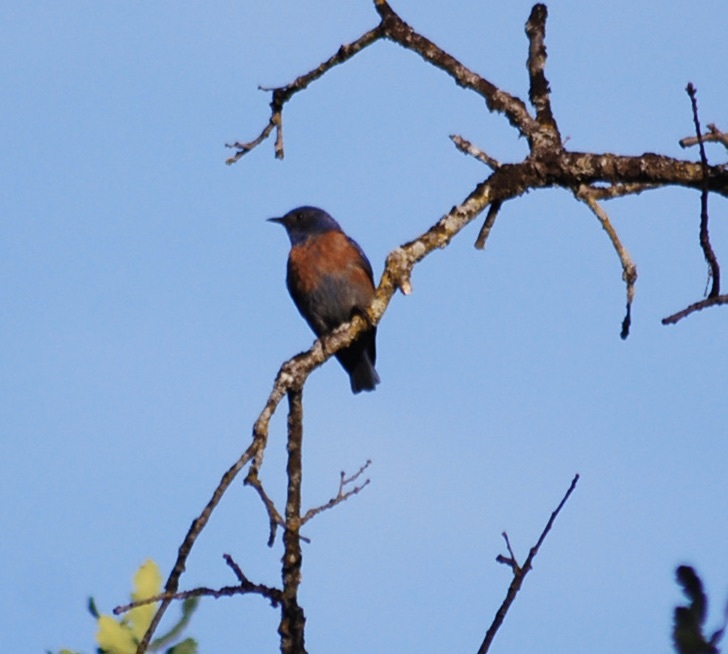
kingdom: Animalia
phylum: Chordata
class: Aves
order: Passeriformes
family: Turdidae
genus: Sialia
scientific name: Sialia mexicana
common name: Western bluebird
